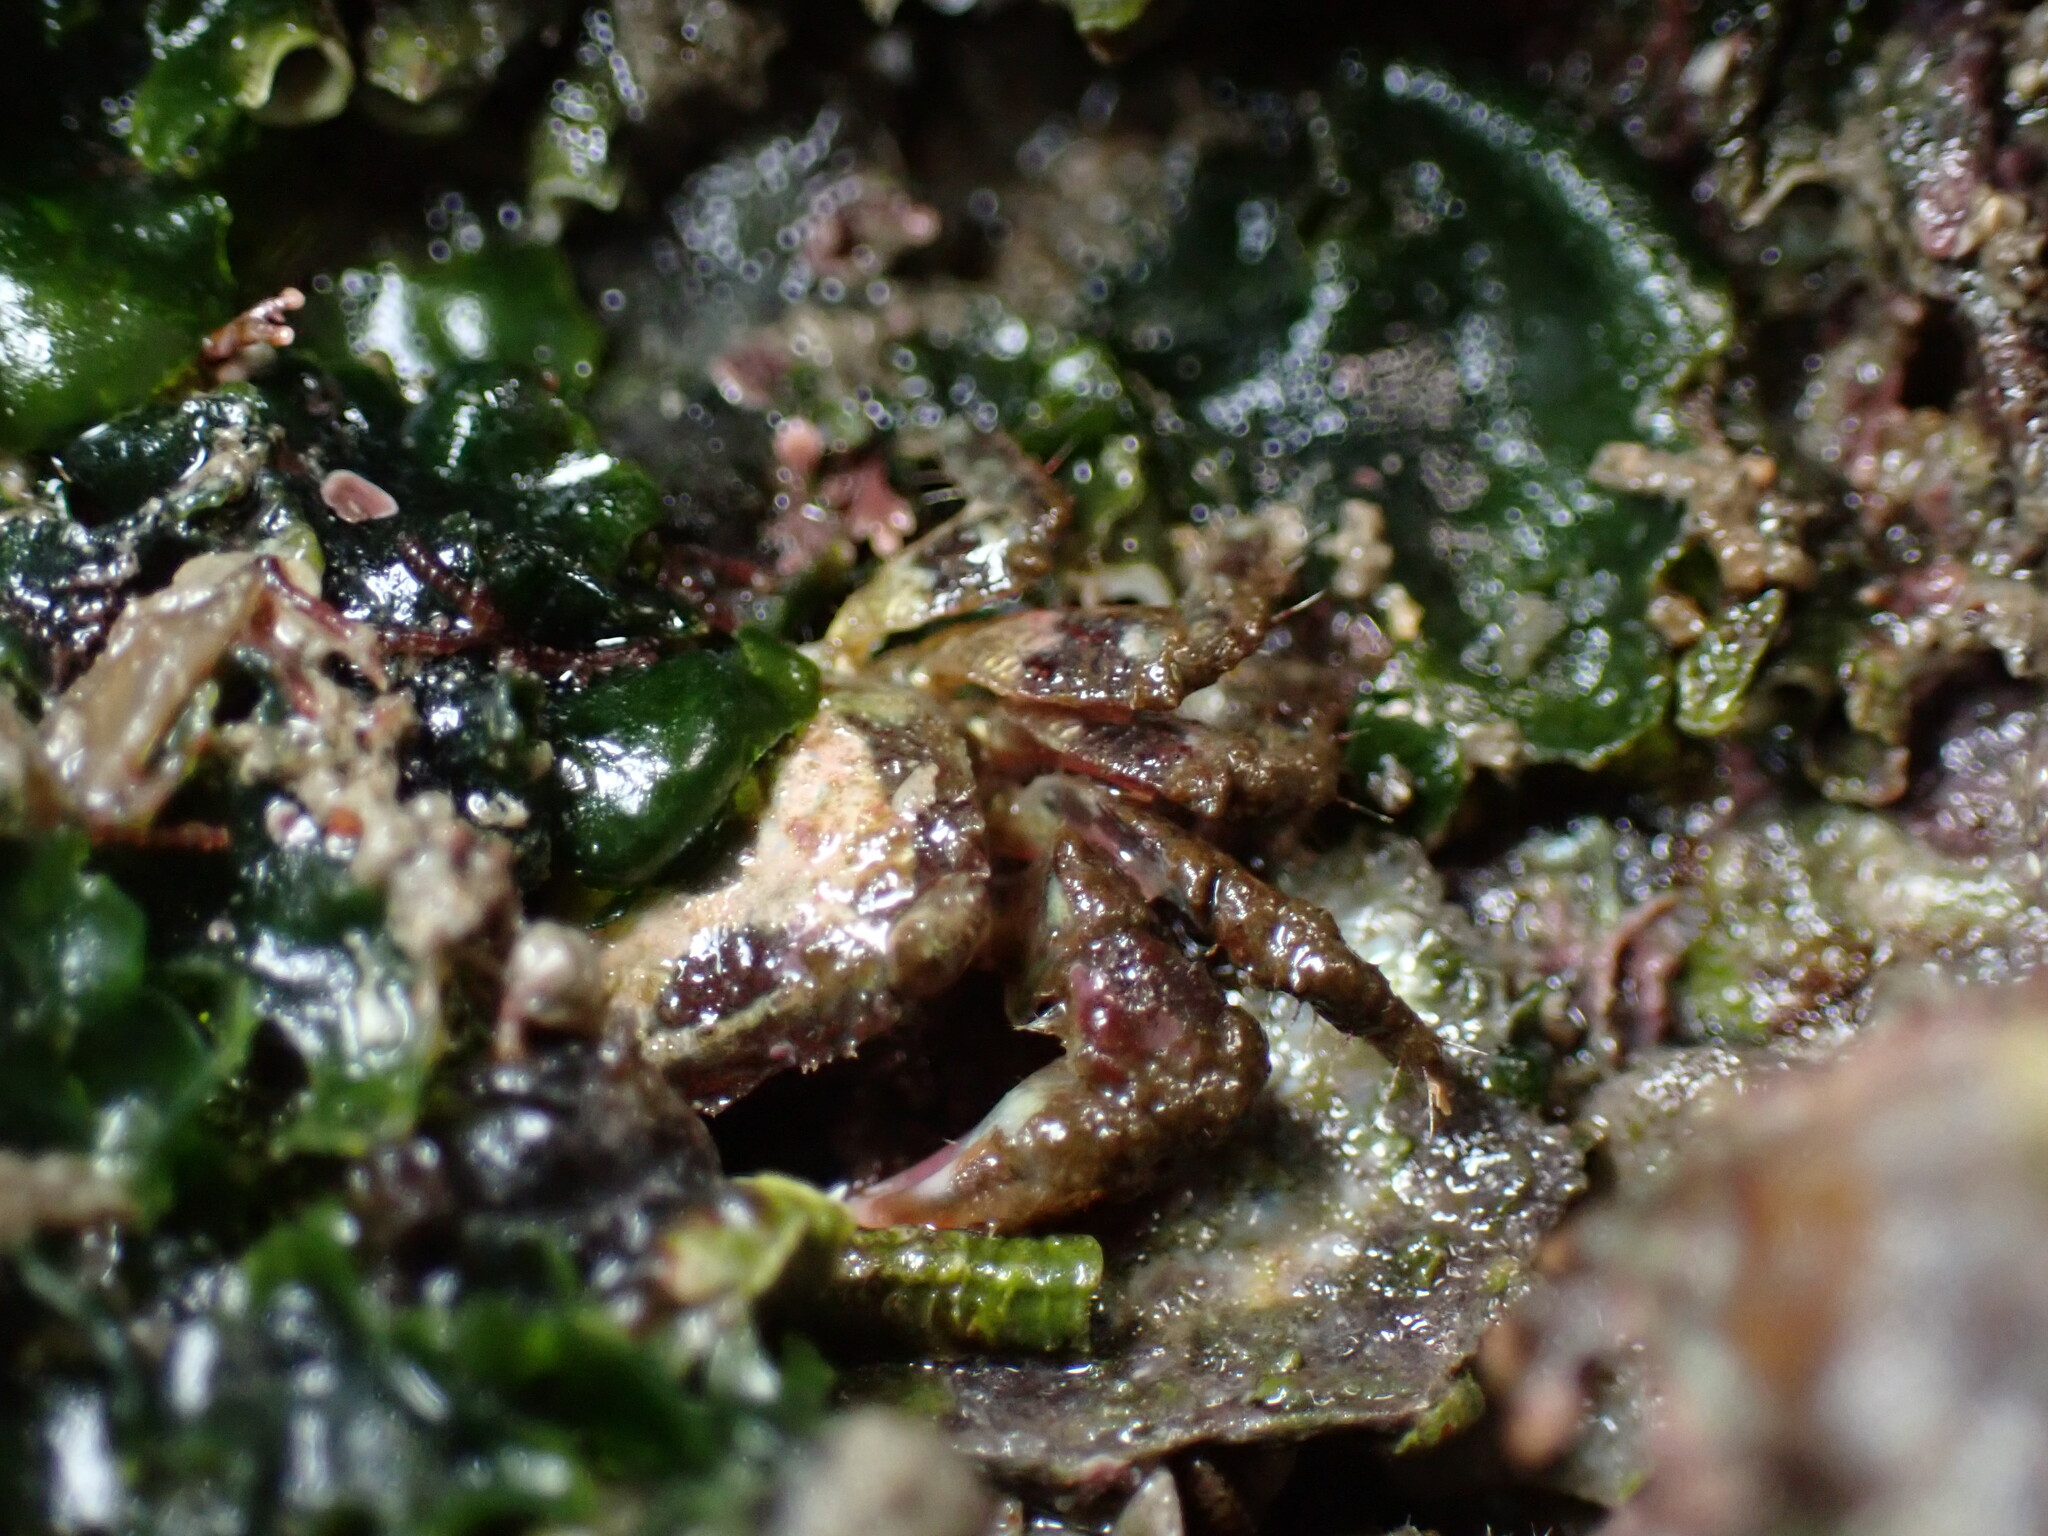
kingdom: Animalia
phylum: Arthropoda
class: Malacostraca
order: Decapoda
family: Sesarmidae
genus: Nanosesarma
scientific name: Nanosesarma minutum
